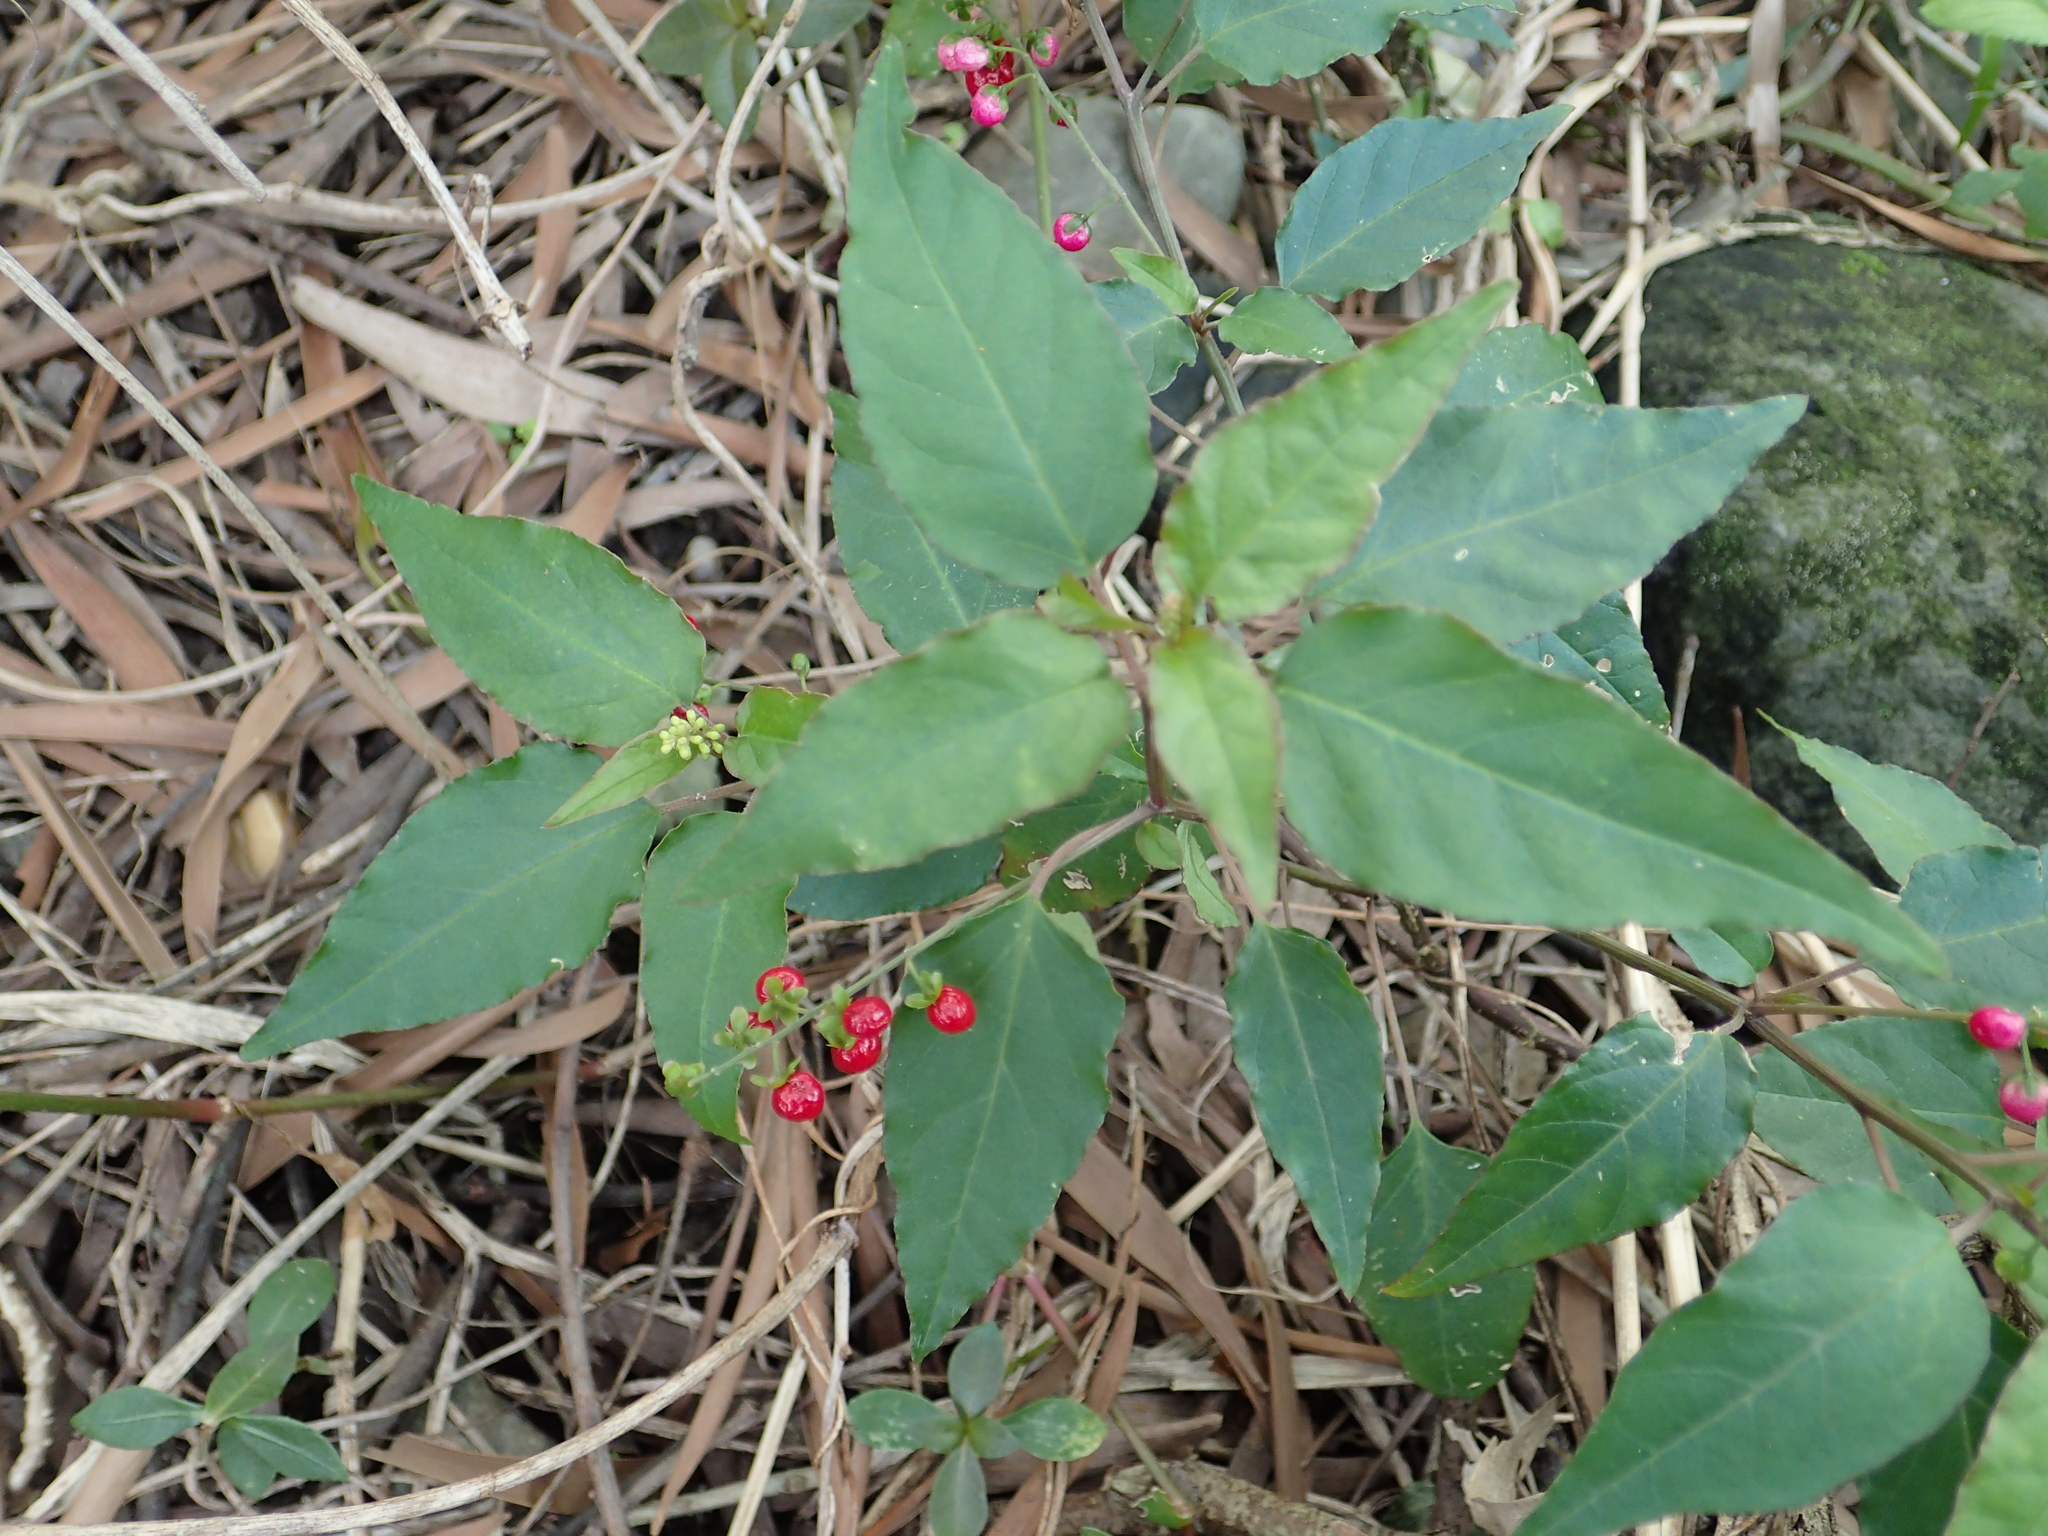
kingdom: Plantae
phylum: Tracheophyta
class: Magnoliopsida
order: Caryophyllales
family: Phytolaccaceae
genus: Rivina
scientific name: Rivina humilis
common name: Rougeplant
